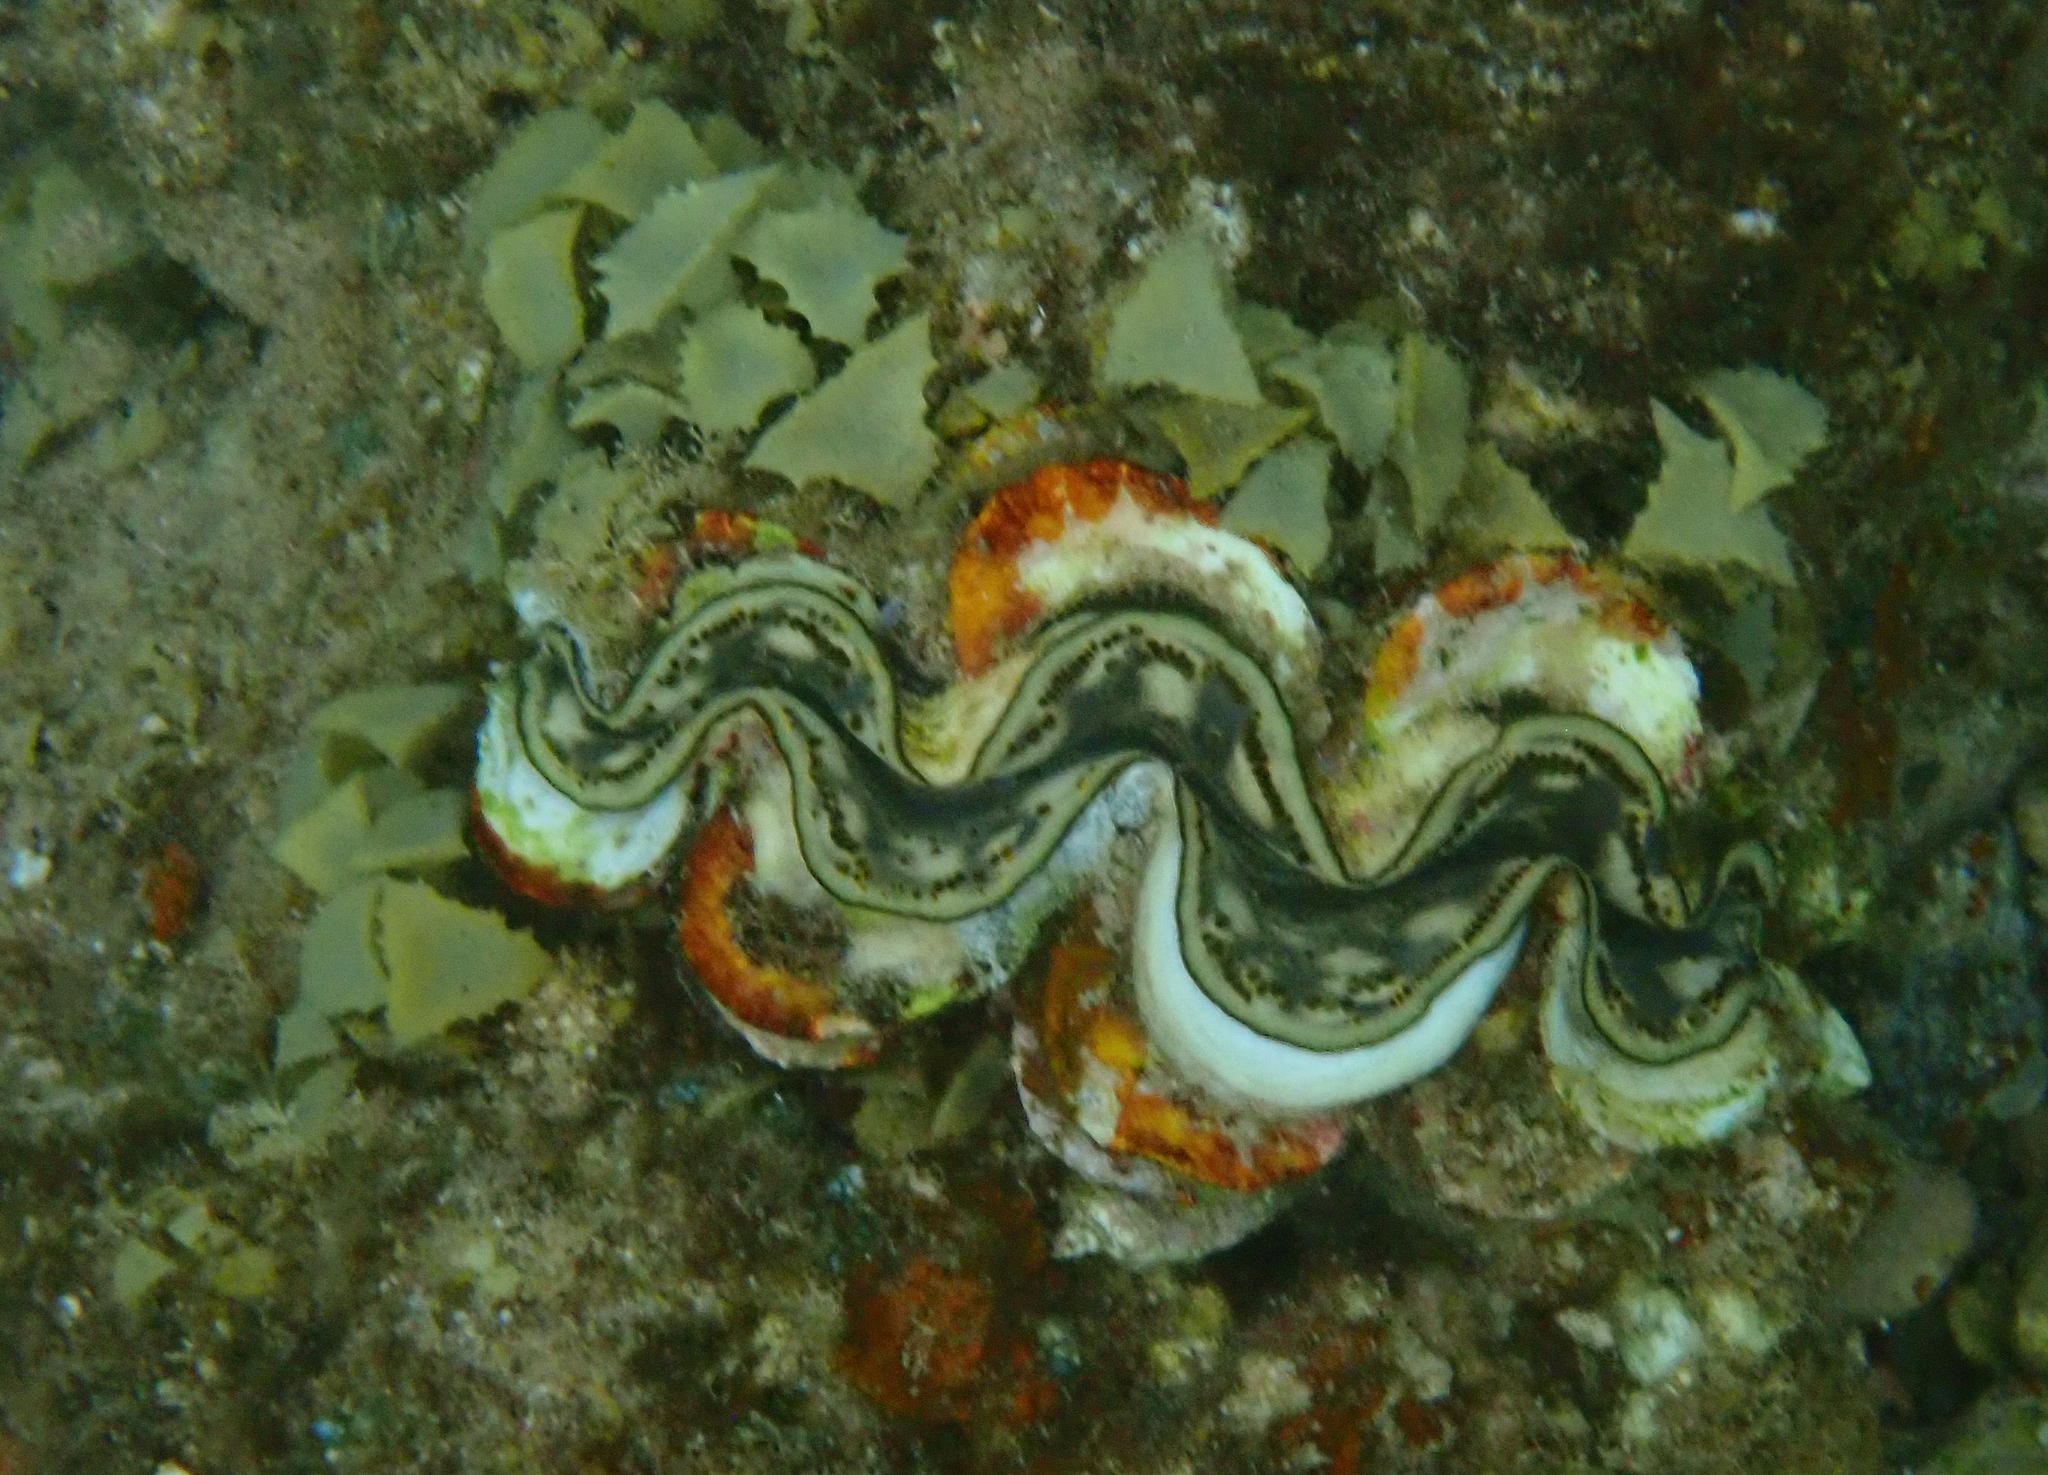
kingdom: Animalia
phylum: Mollusca
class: Bivalvia
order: Cardiida
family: Cardiidae
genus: Tridacna
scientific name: Tridacna maxima
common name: Small giant clam
